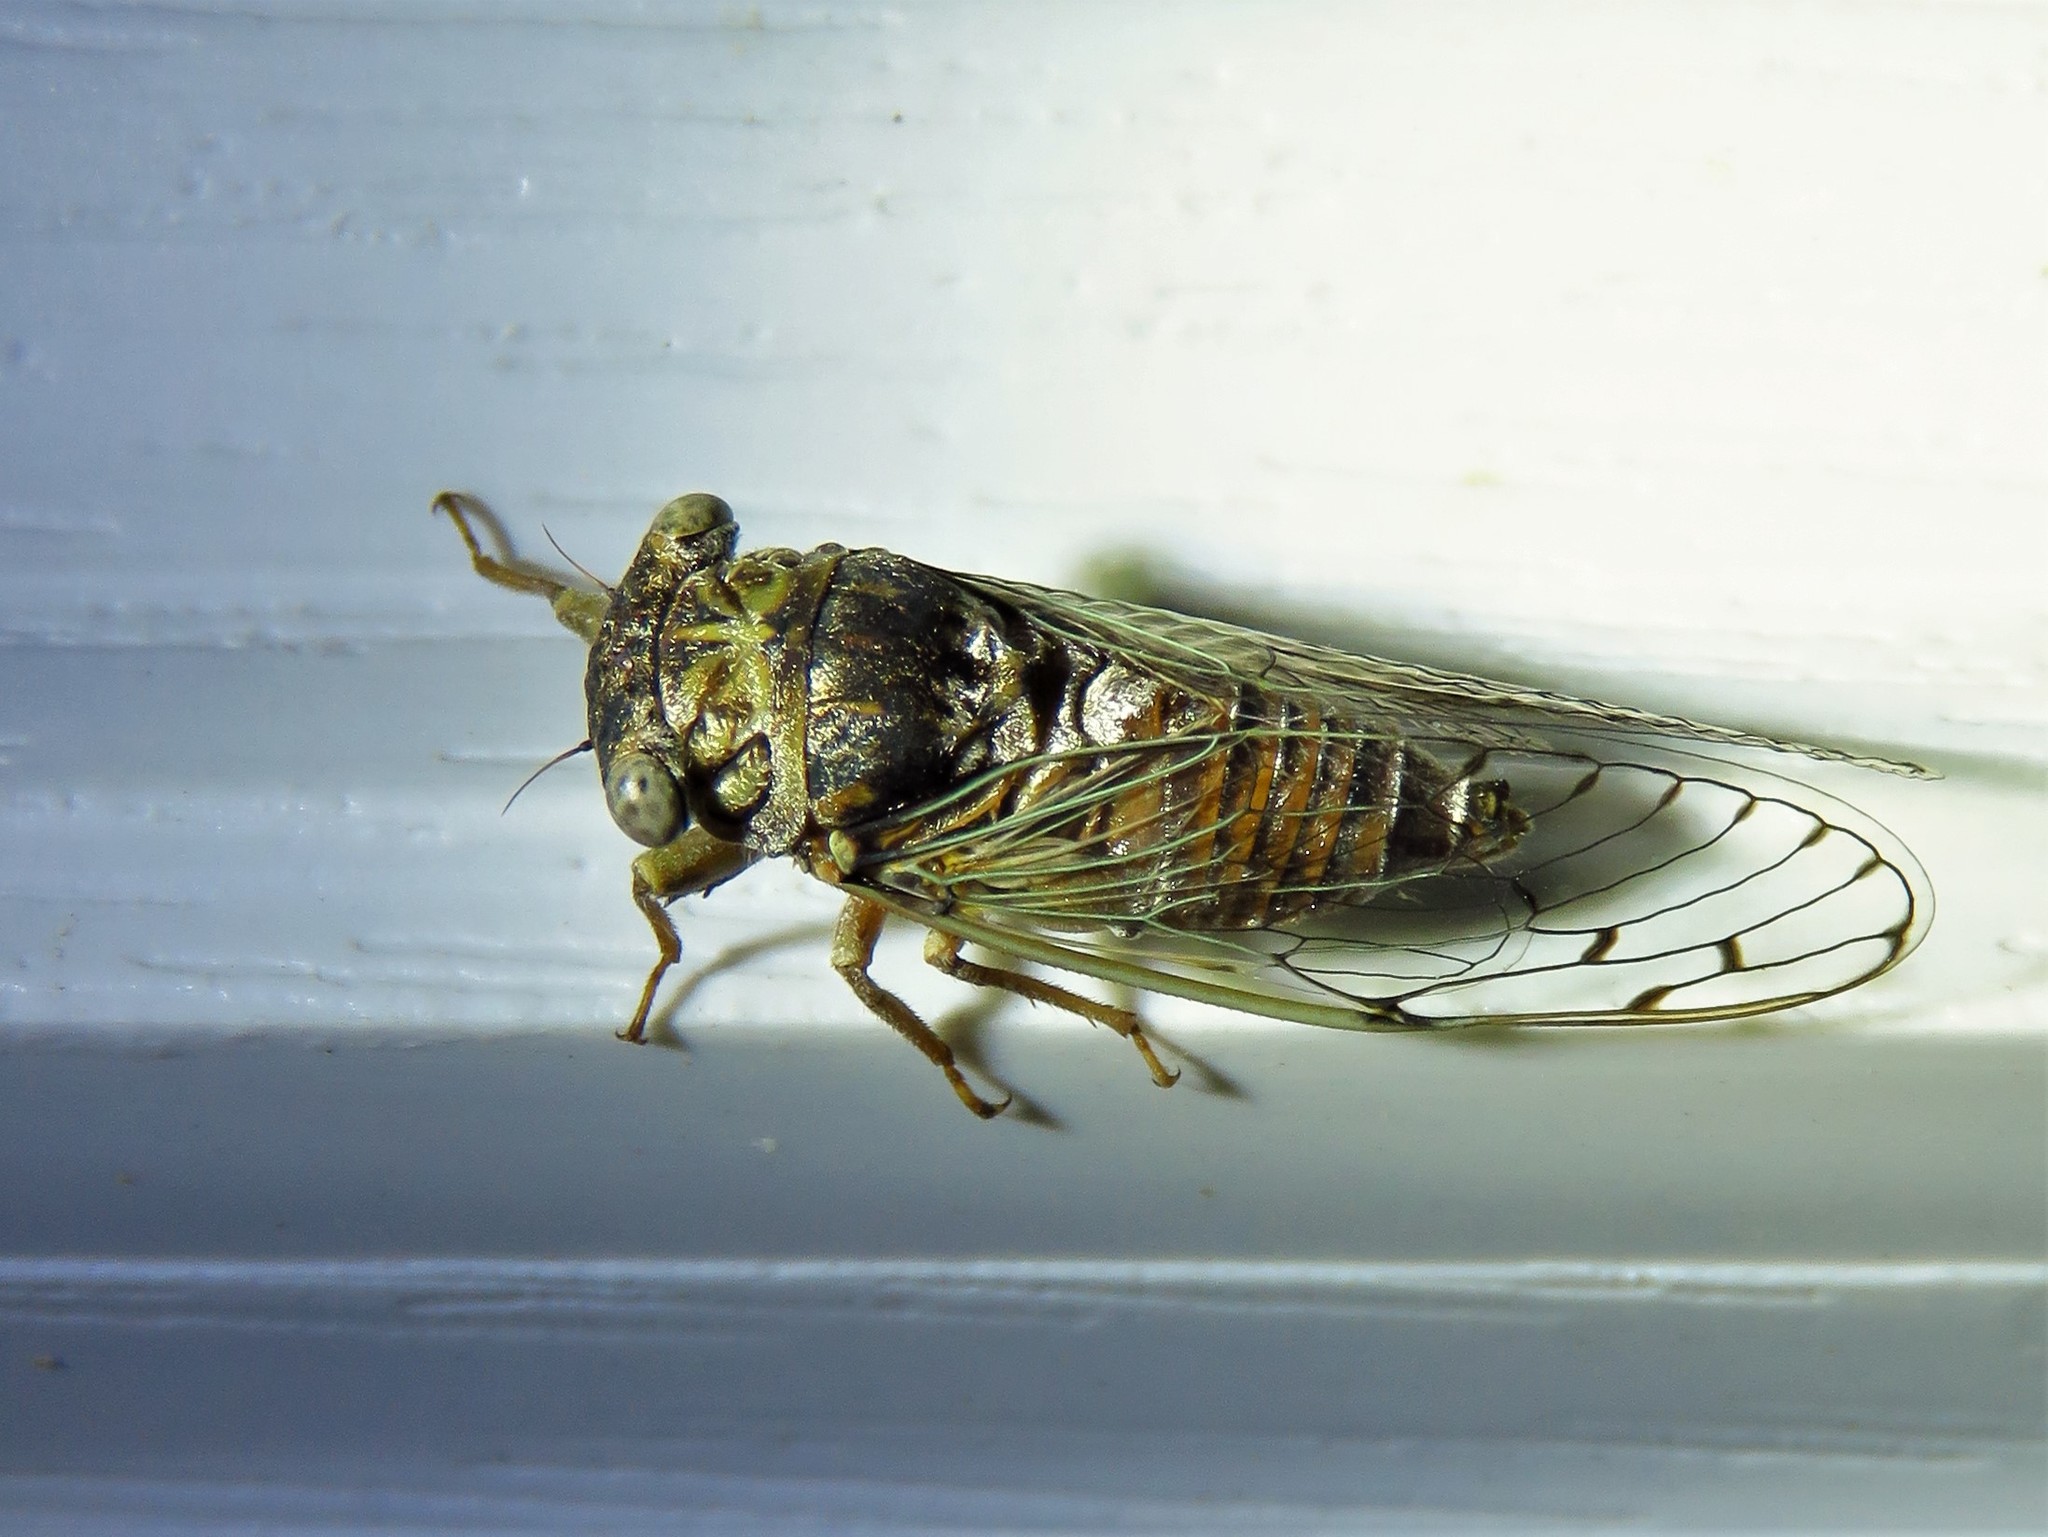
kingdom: Animalia
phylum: Arthropoda
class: Insecta
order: Hemiptera
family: Cicadidae
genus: Pacarina
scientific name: Pacarina puella
